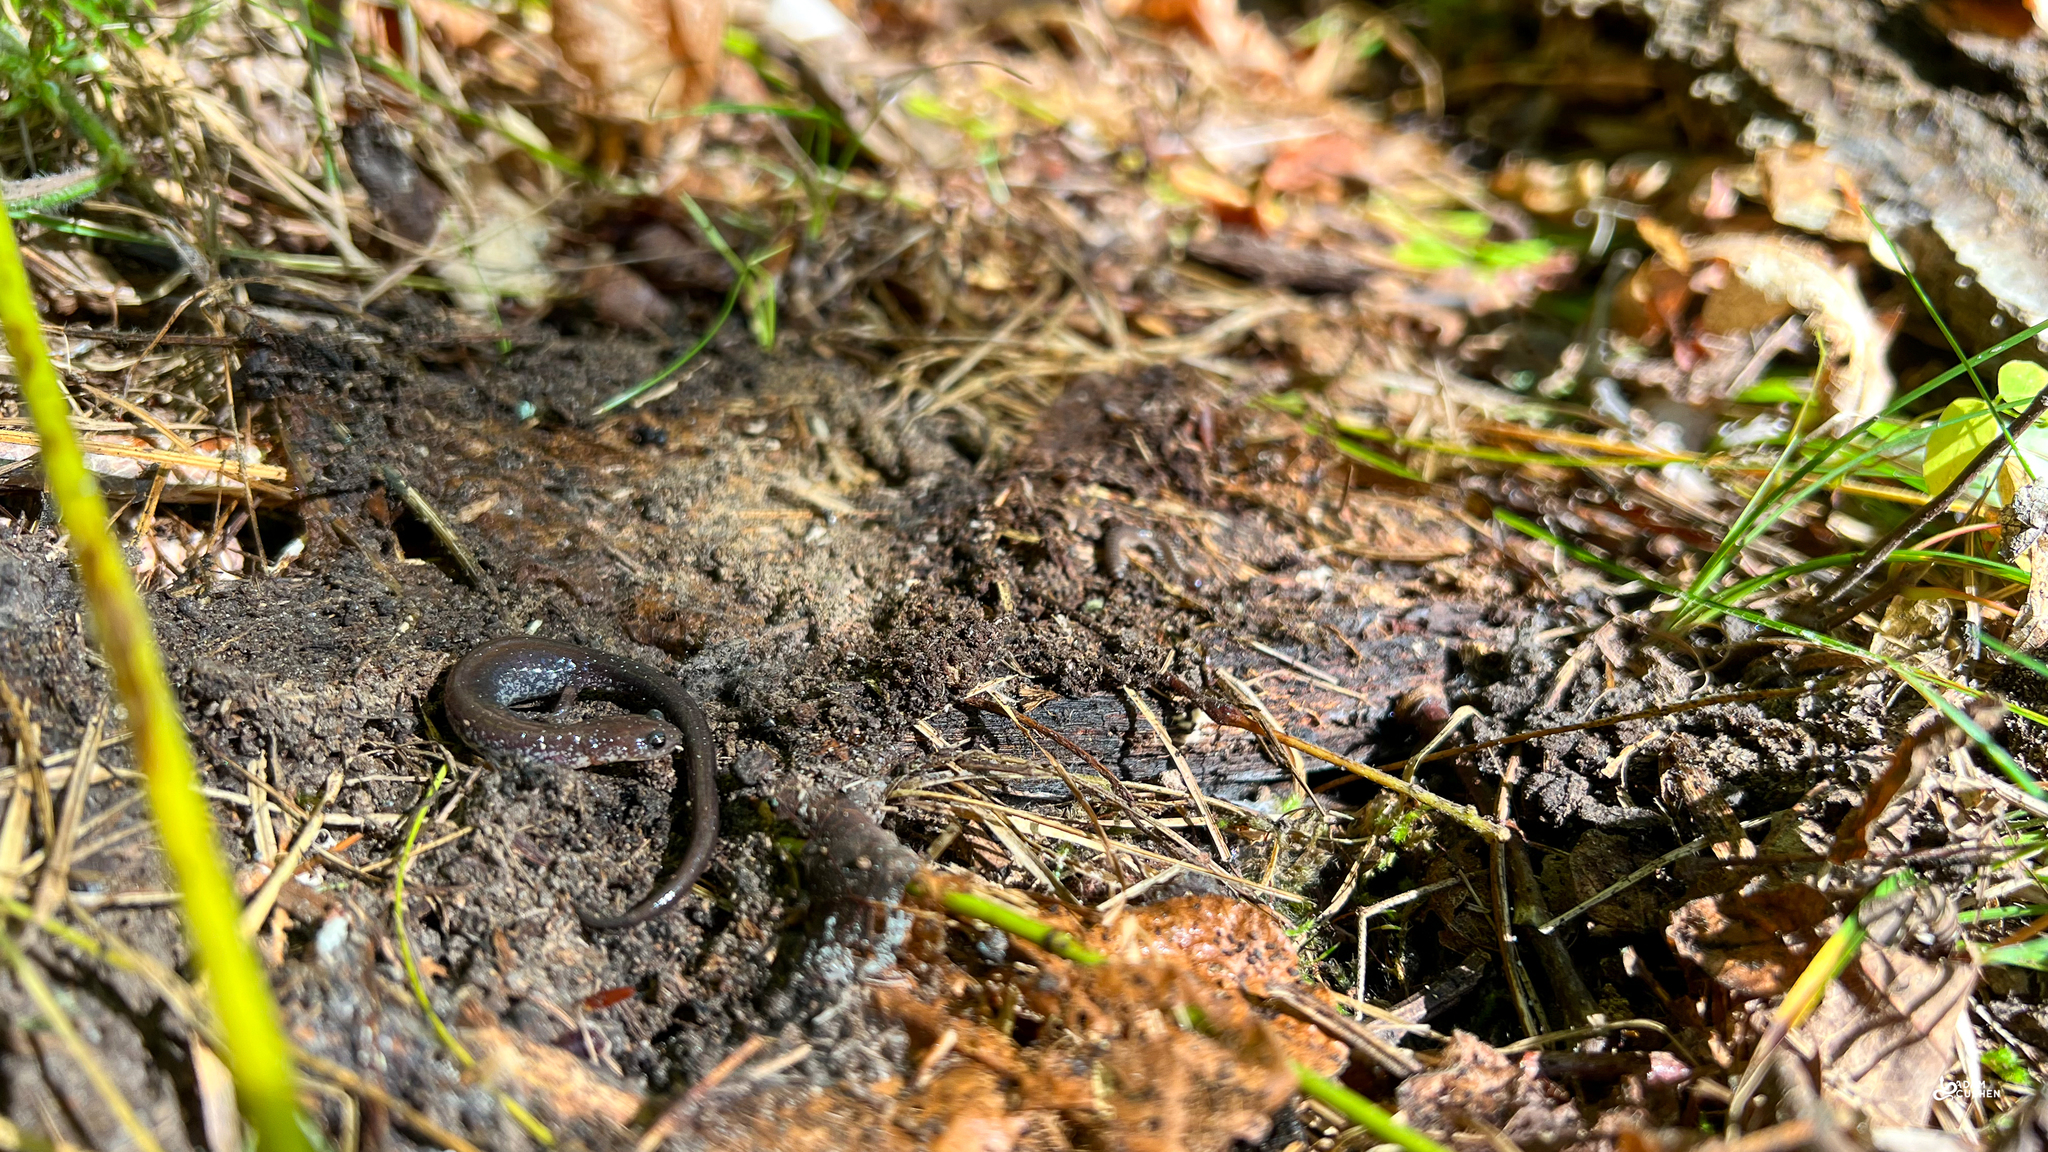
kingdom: Animalia
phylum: Chordata
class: Amphibia
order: Caudata
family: Plethodontidae
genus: Plethodon
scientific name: Plethodon cinereus
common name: Redback salamander
